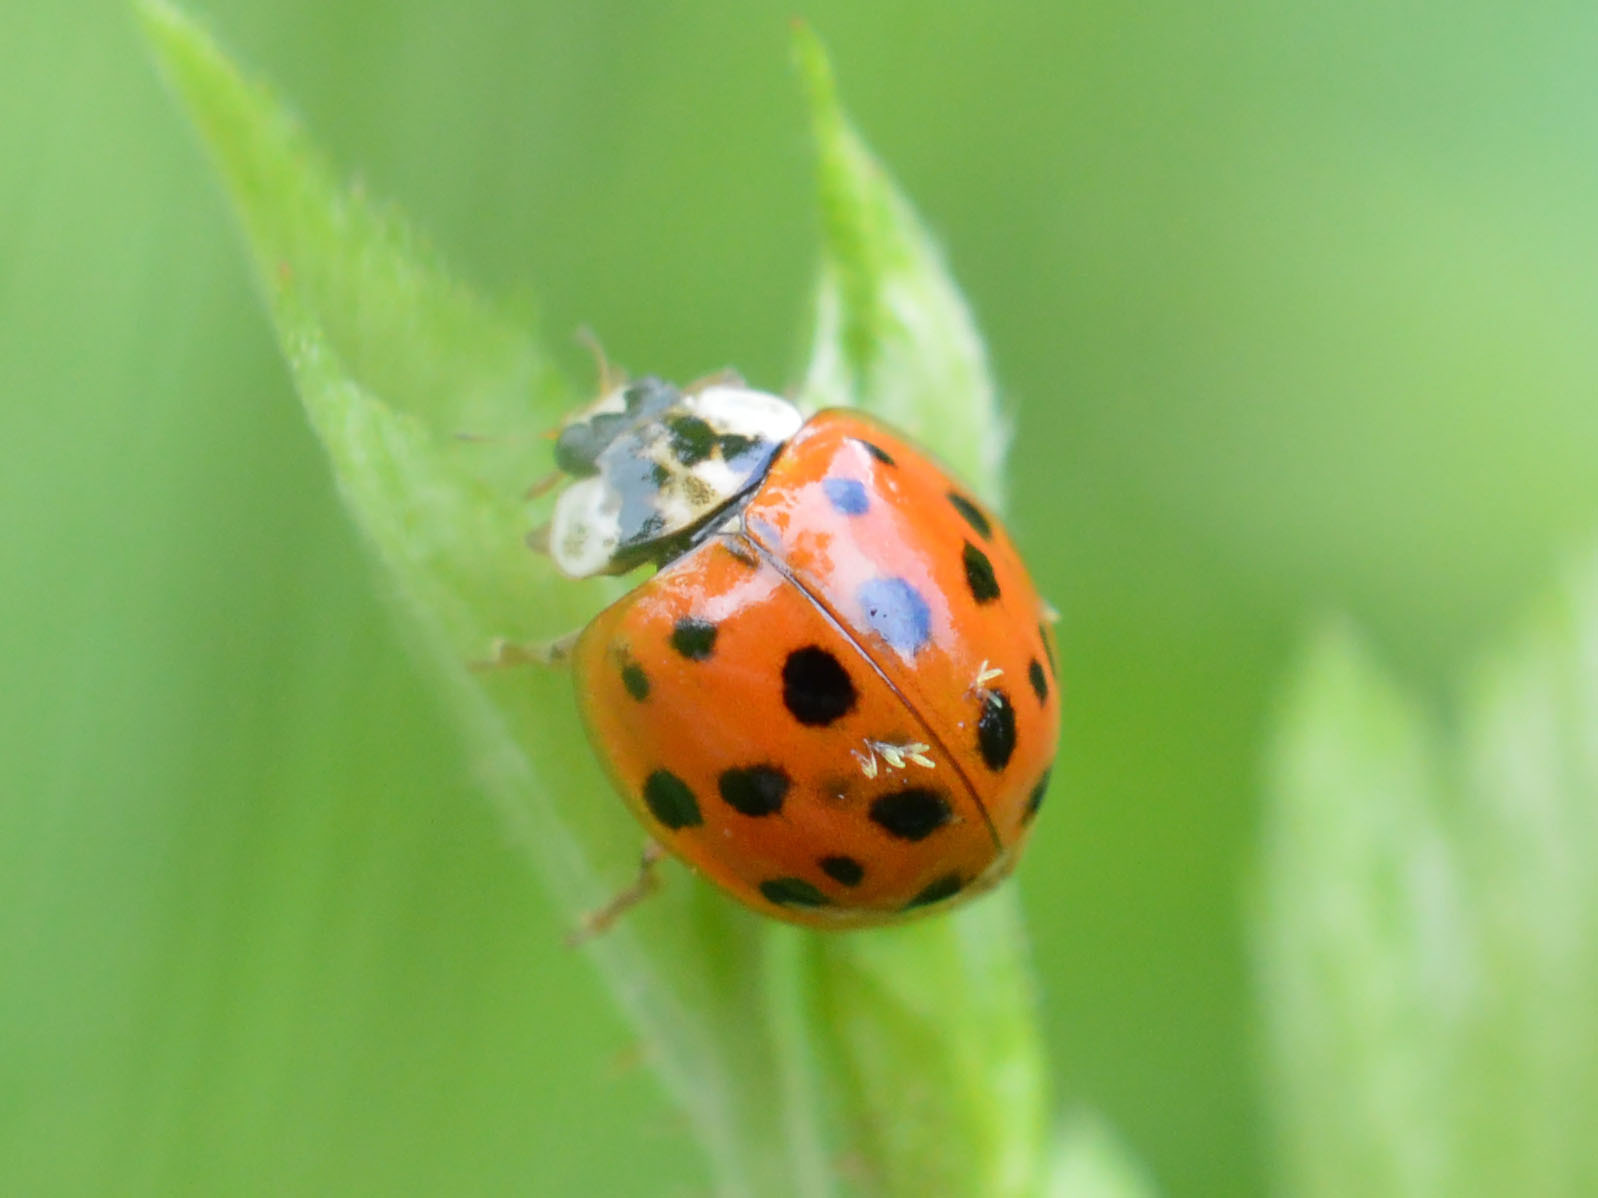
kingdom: Animalia
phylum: Arthropoda
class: Insecta
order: Coleoptera
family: Coccinellidae
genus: Harmonia
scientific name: Harmonia axyridis
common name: Harlequin ladybird
